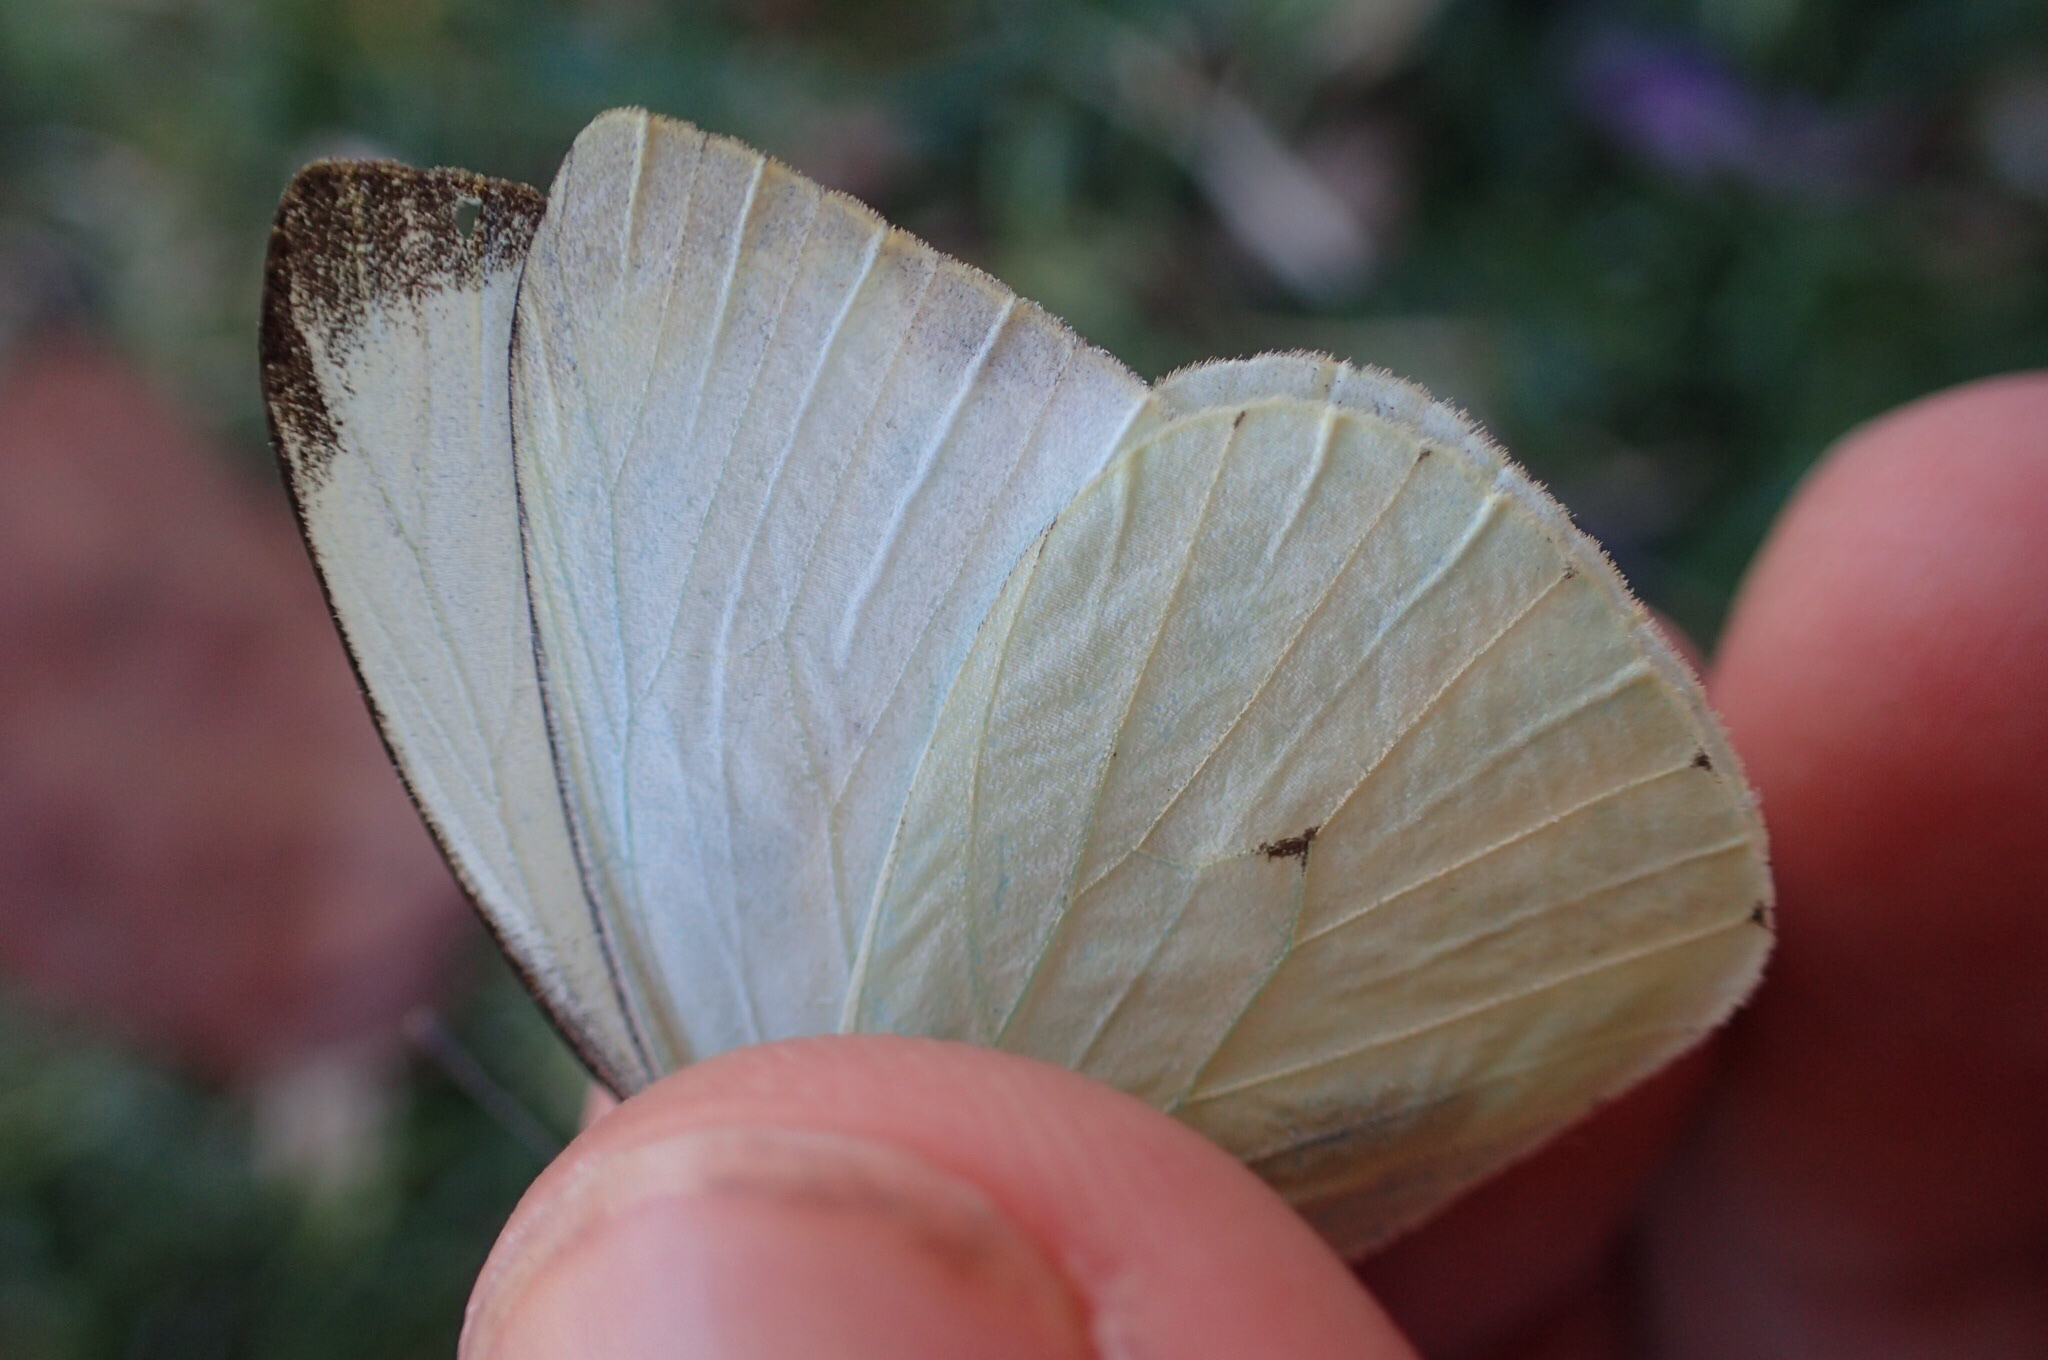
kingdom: Animalia
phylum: Arthropoda
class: Insecta
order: Lepidoptera
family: Pieridae
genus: Leptophobia
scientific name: Leptophobia aripa
